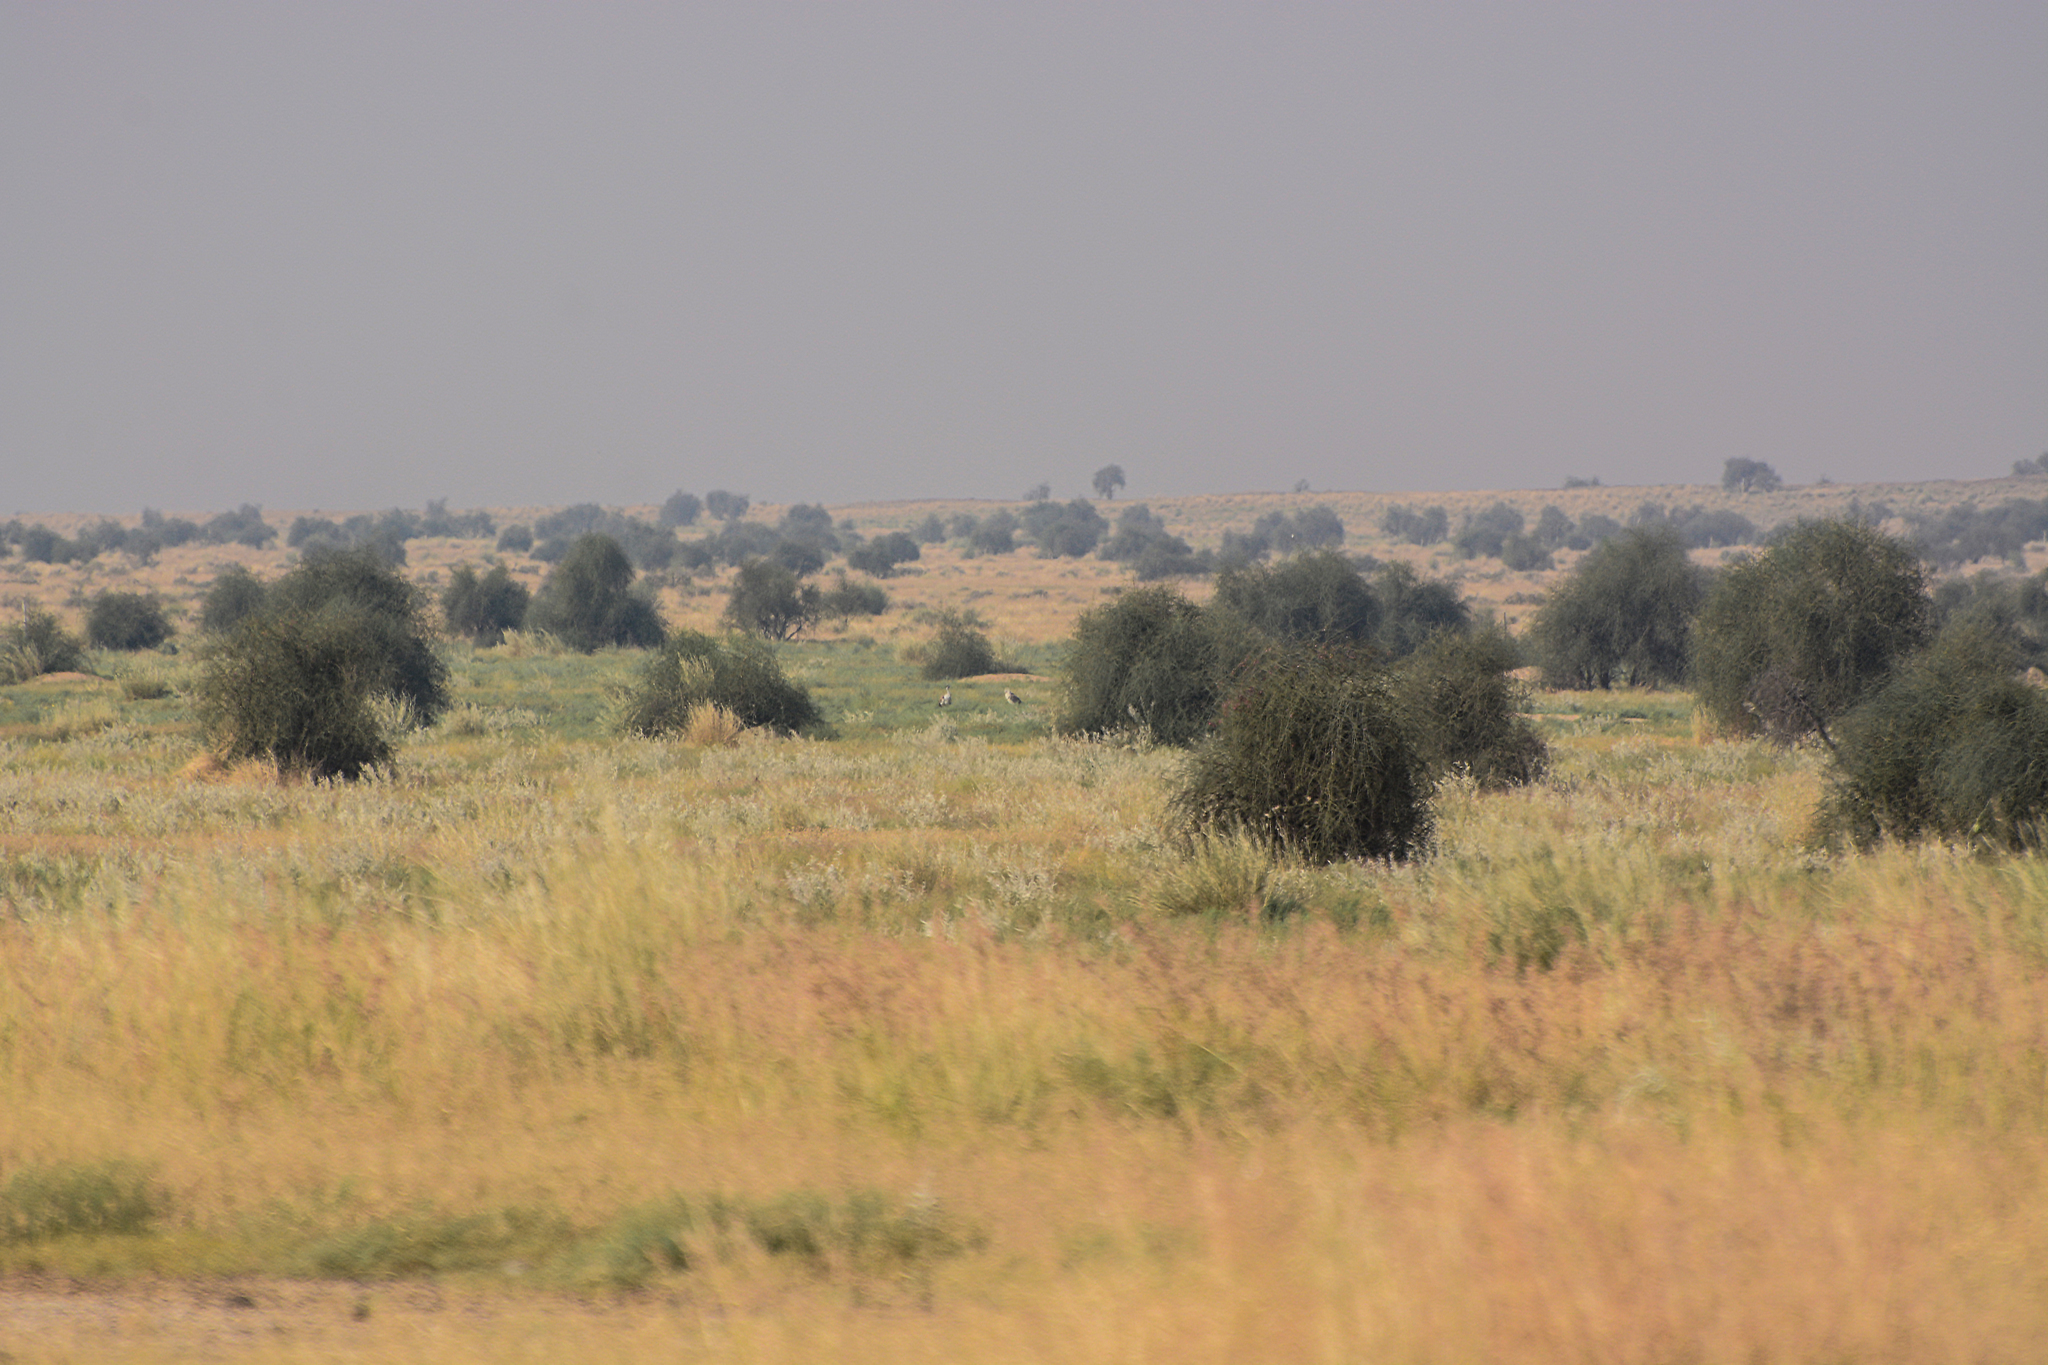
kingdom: Animalia
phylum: Chordata
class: Aves
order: Otidiformes
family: Otididae
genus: Ardeotis
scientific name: Ardeotis nigriceps
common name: Great indian bustard
